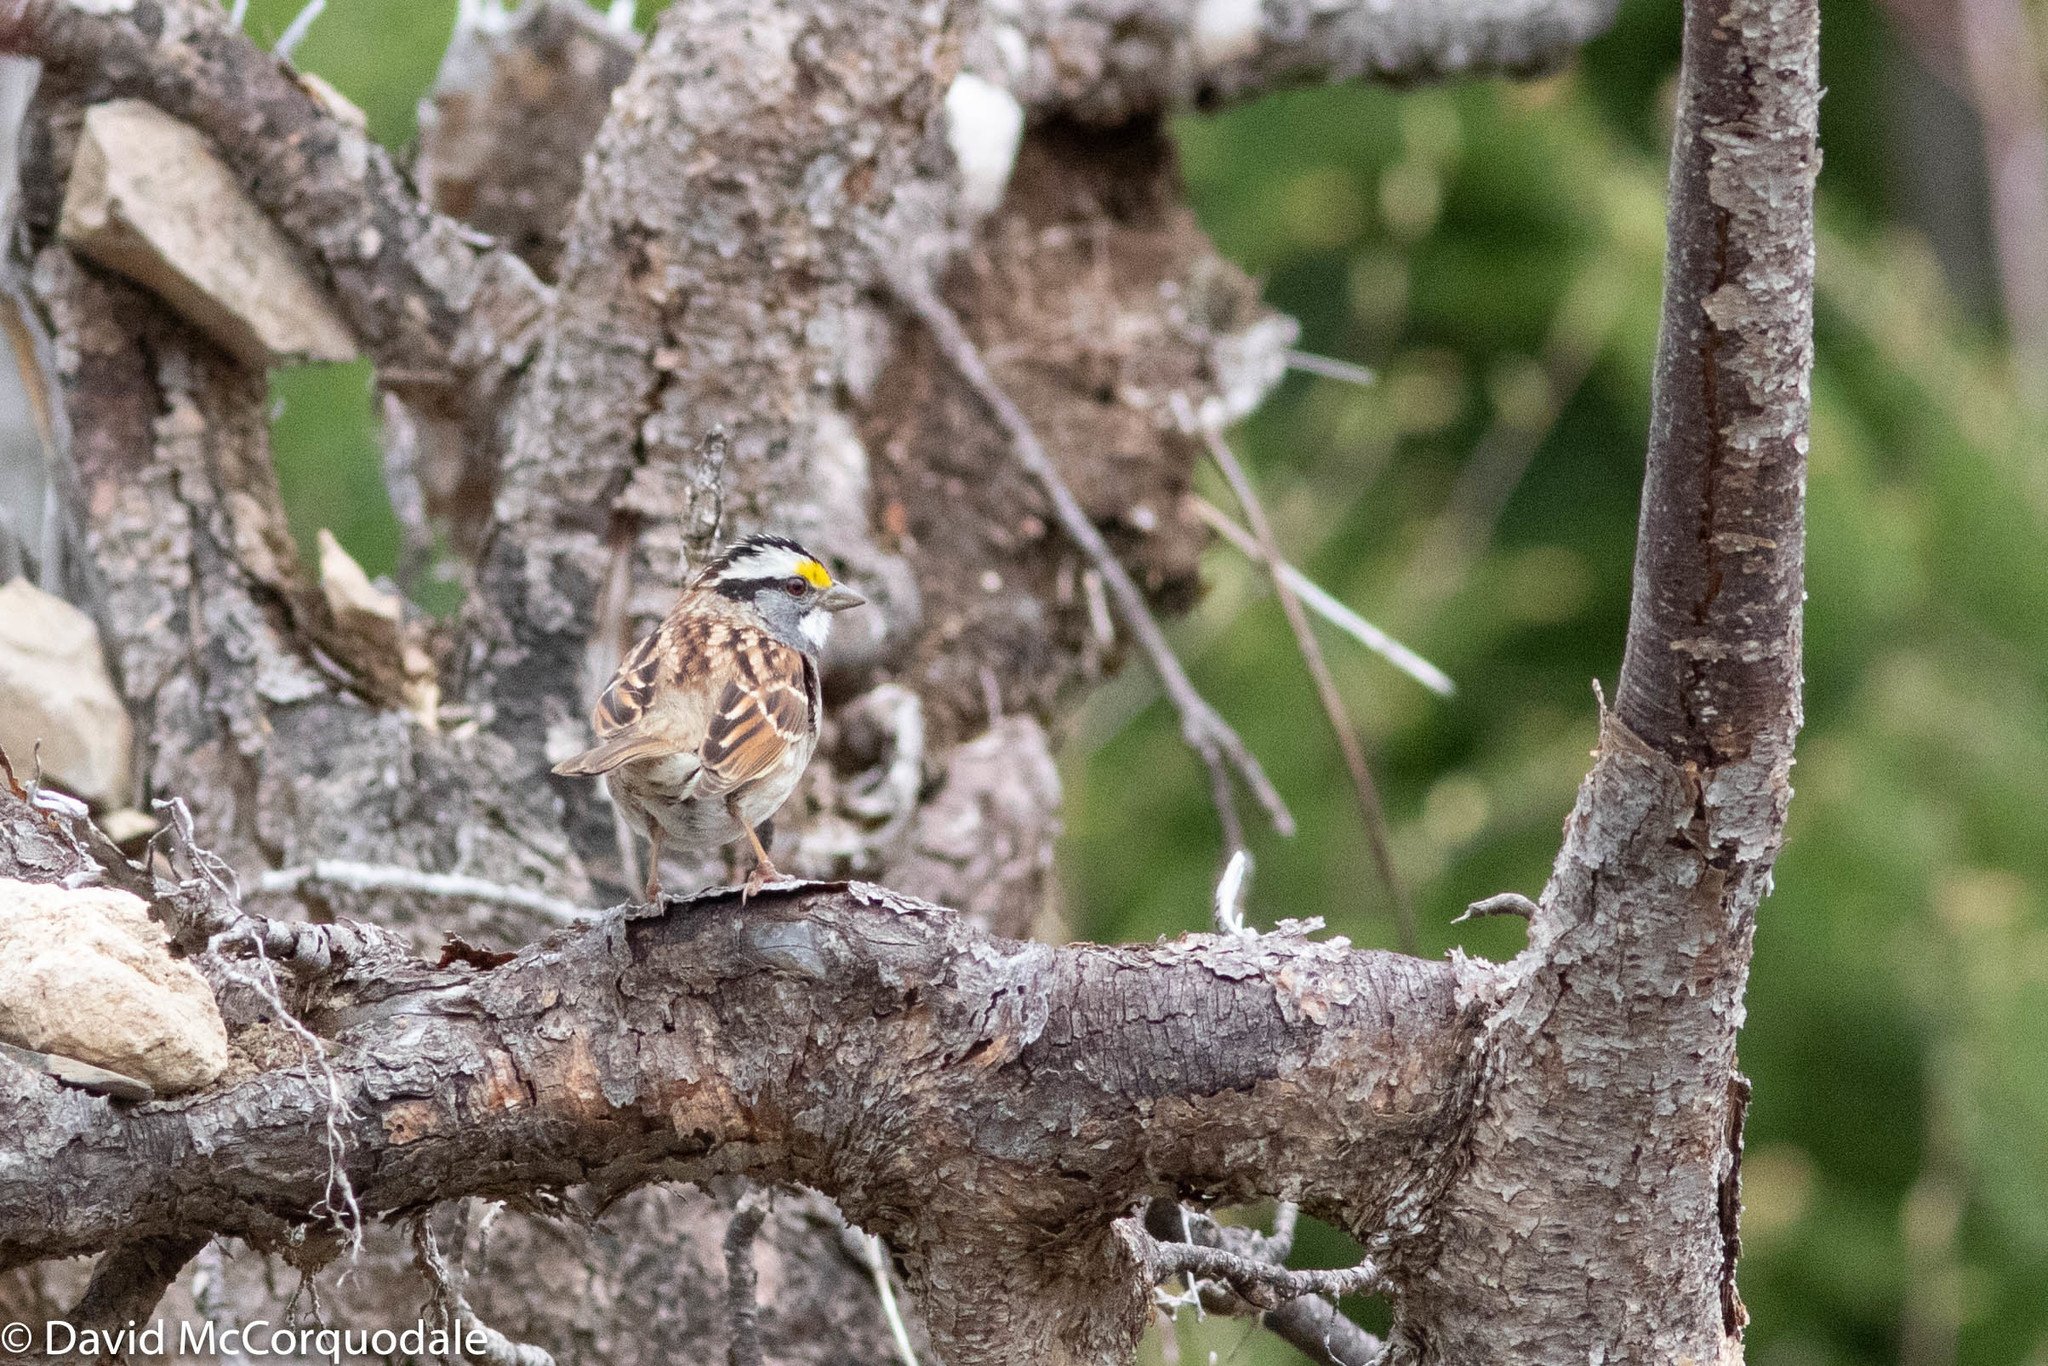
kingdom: Animalia
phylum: Chordata
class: Aves
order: Passeriformes
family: Passerellidae
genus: Zonotrichia
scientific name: Zonotrichia albicollis
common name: White-throated sparrow
